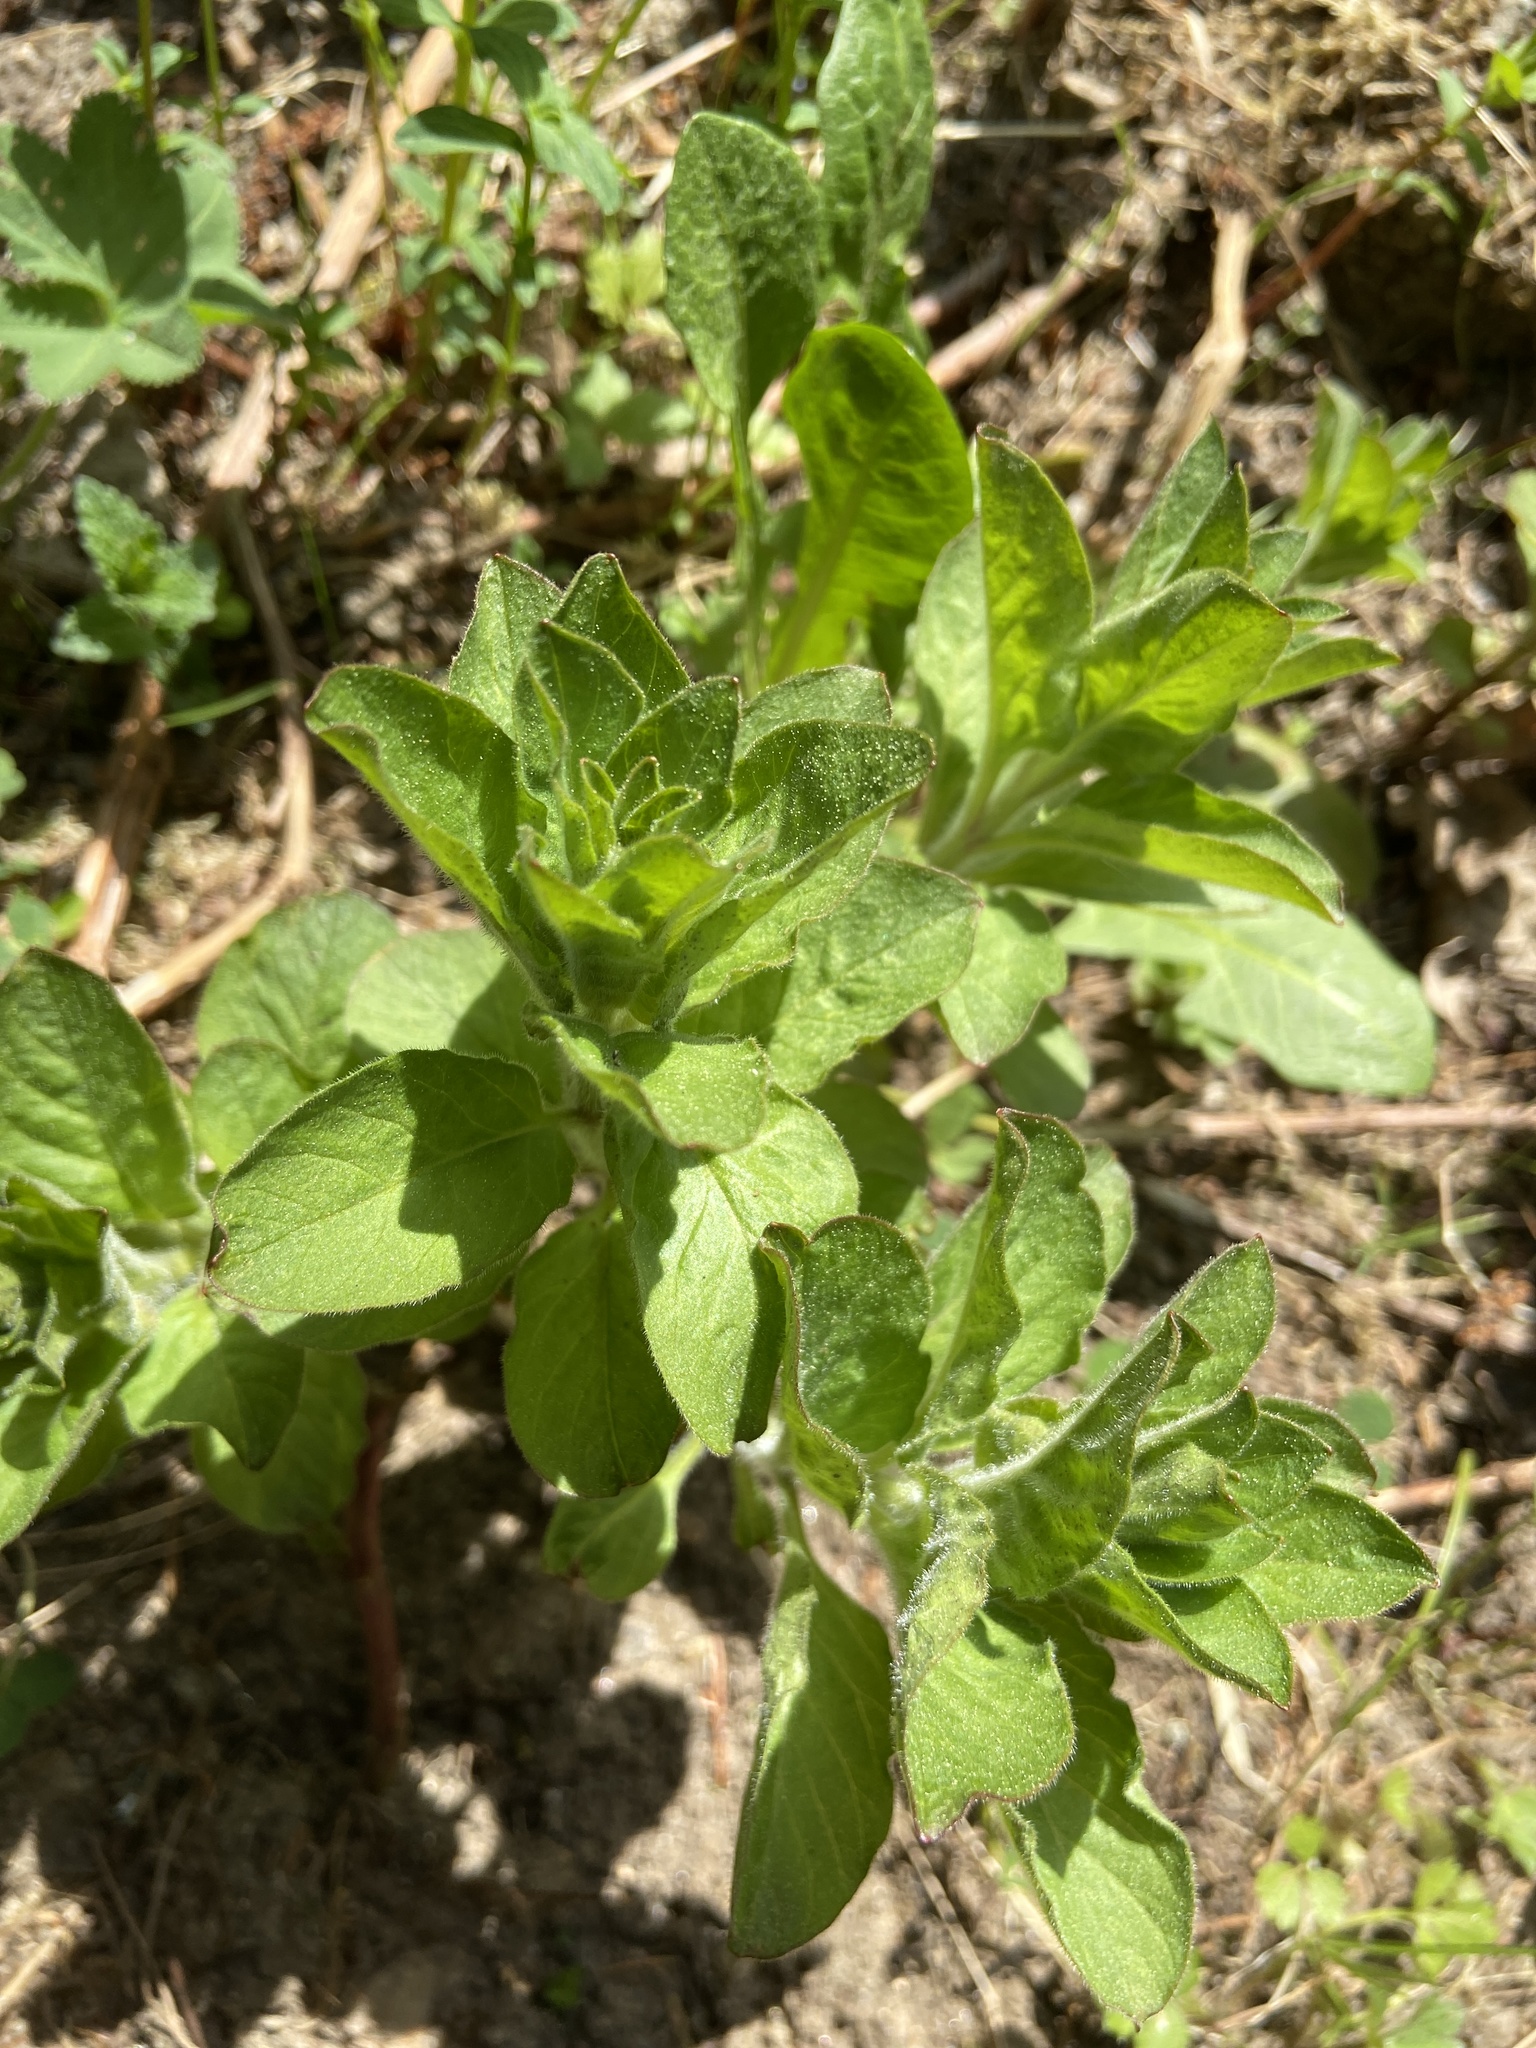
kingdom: Plantae
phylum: Tracheophyta
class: Magnoliopsida
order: Ericales
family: Primulaceae
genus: Lysimachia
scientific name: Lysimachia punctata
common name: Dotted loosestrife
